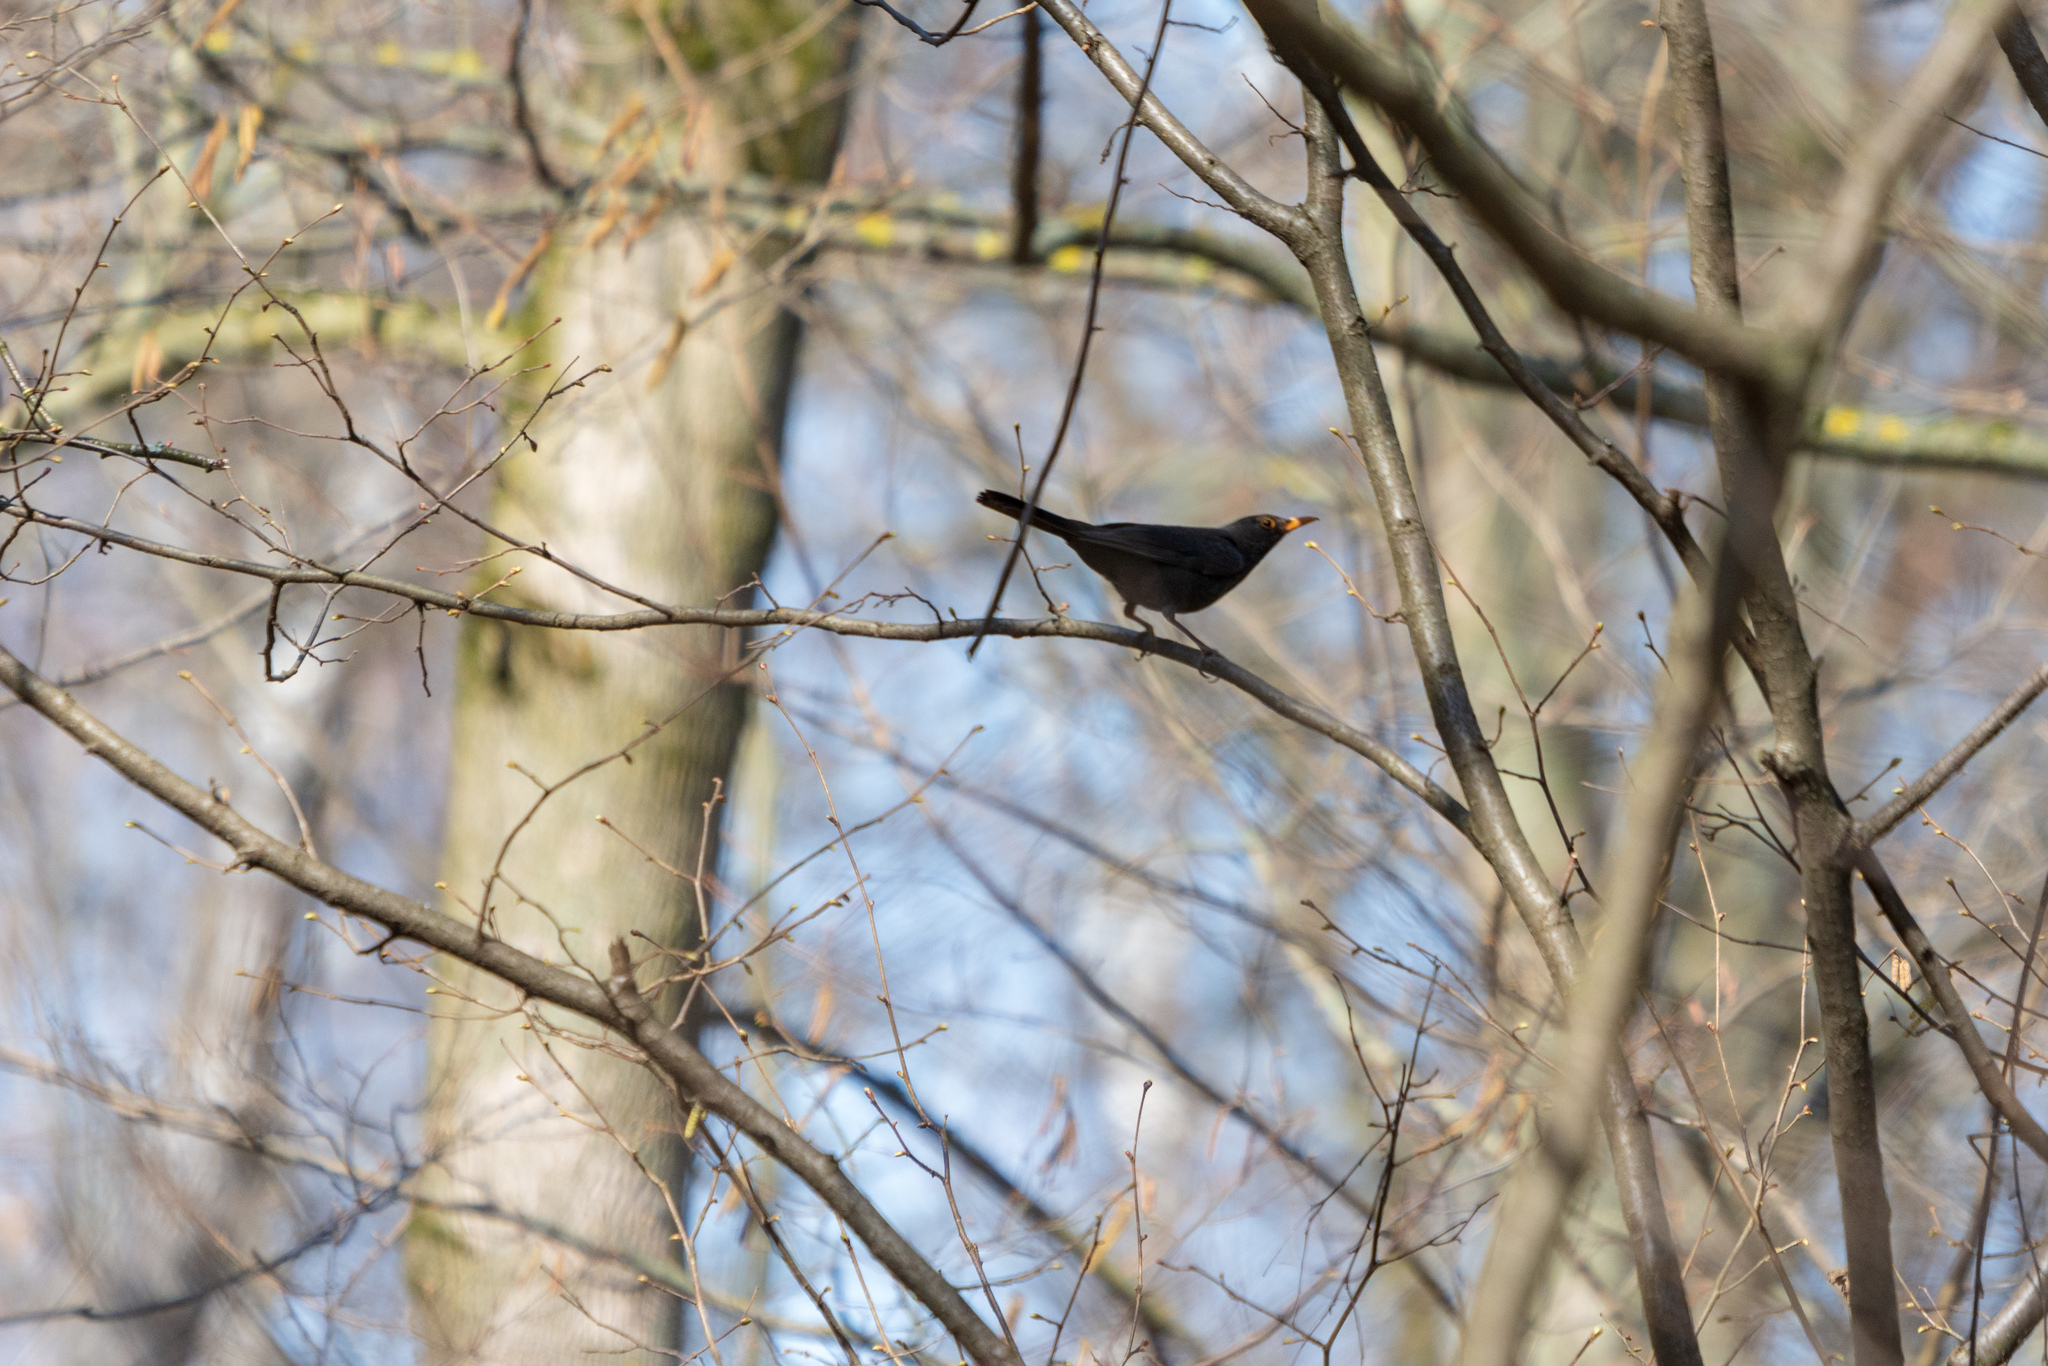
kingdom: Animalia
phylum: Chordata
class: Aves
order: Passeriformes
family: Turdidae
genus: Turdus
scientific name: Turdus merula
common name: Common blackbird
